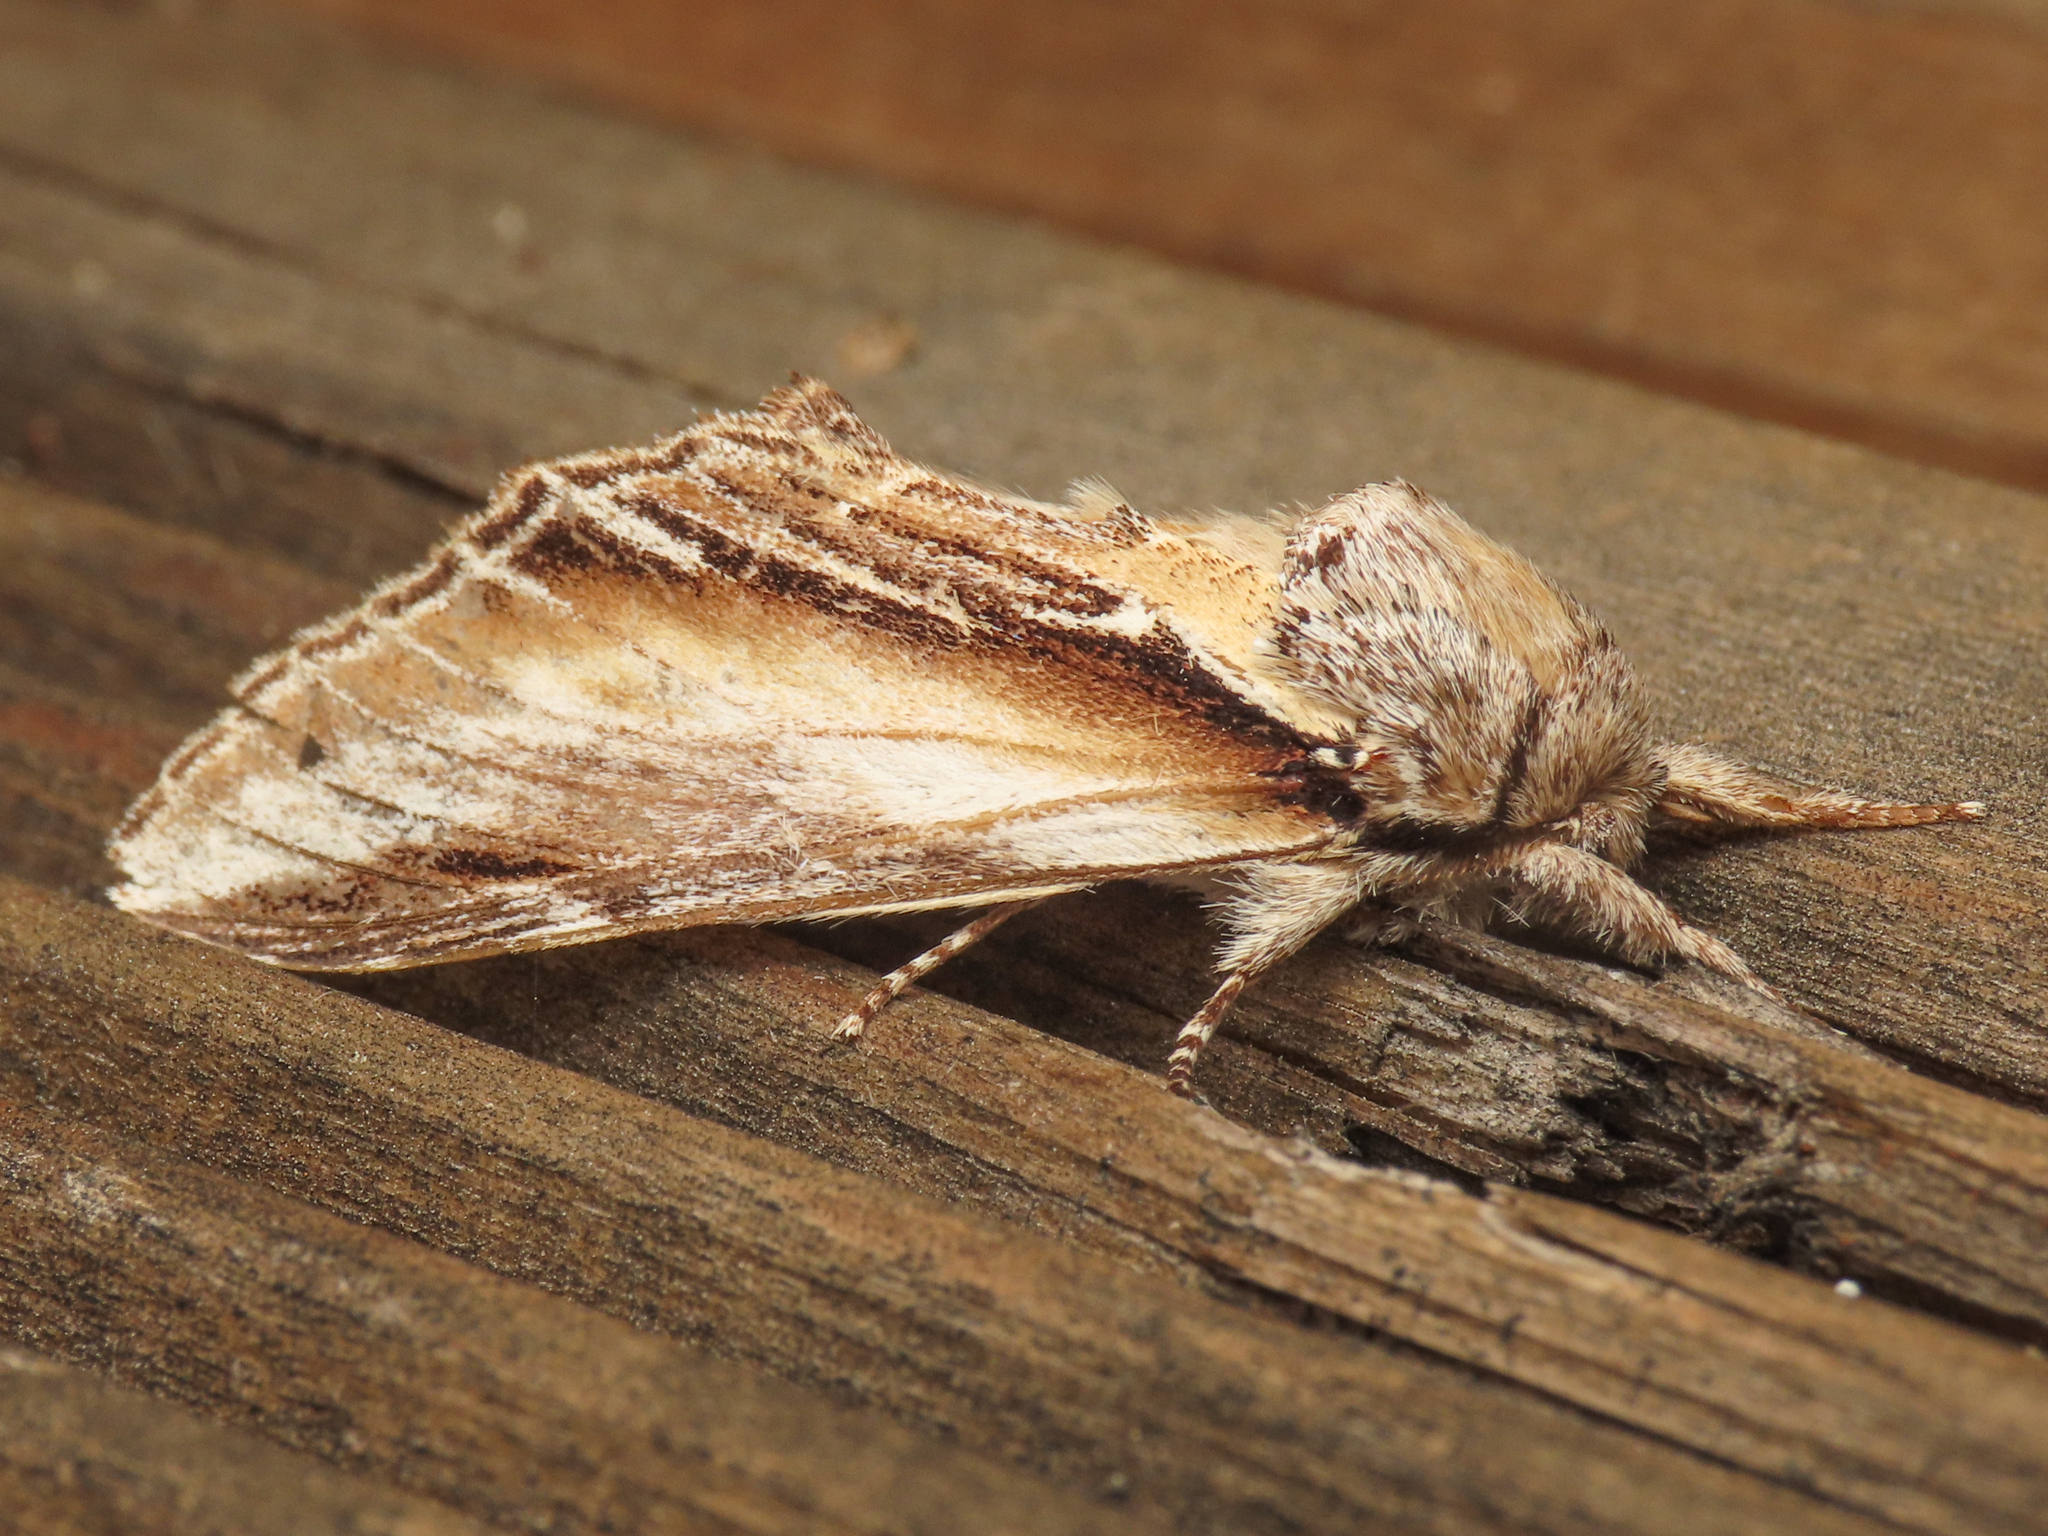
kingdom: Animalia
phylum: Arthropoda
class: Insecta
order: Lepidoptera
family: Notodontidae
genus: Pheosia
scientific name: Pheosia tremula
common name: Swallow prominent
